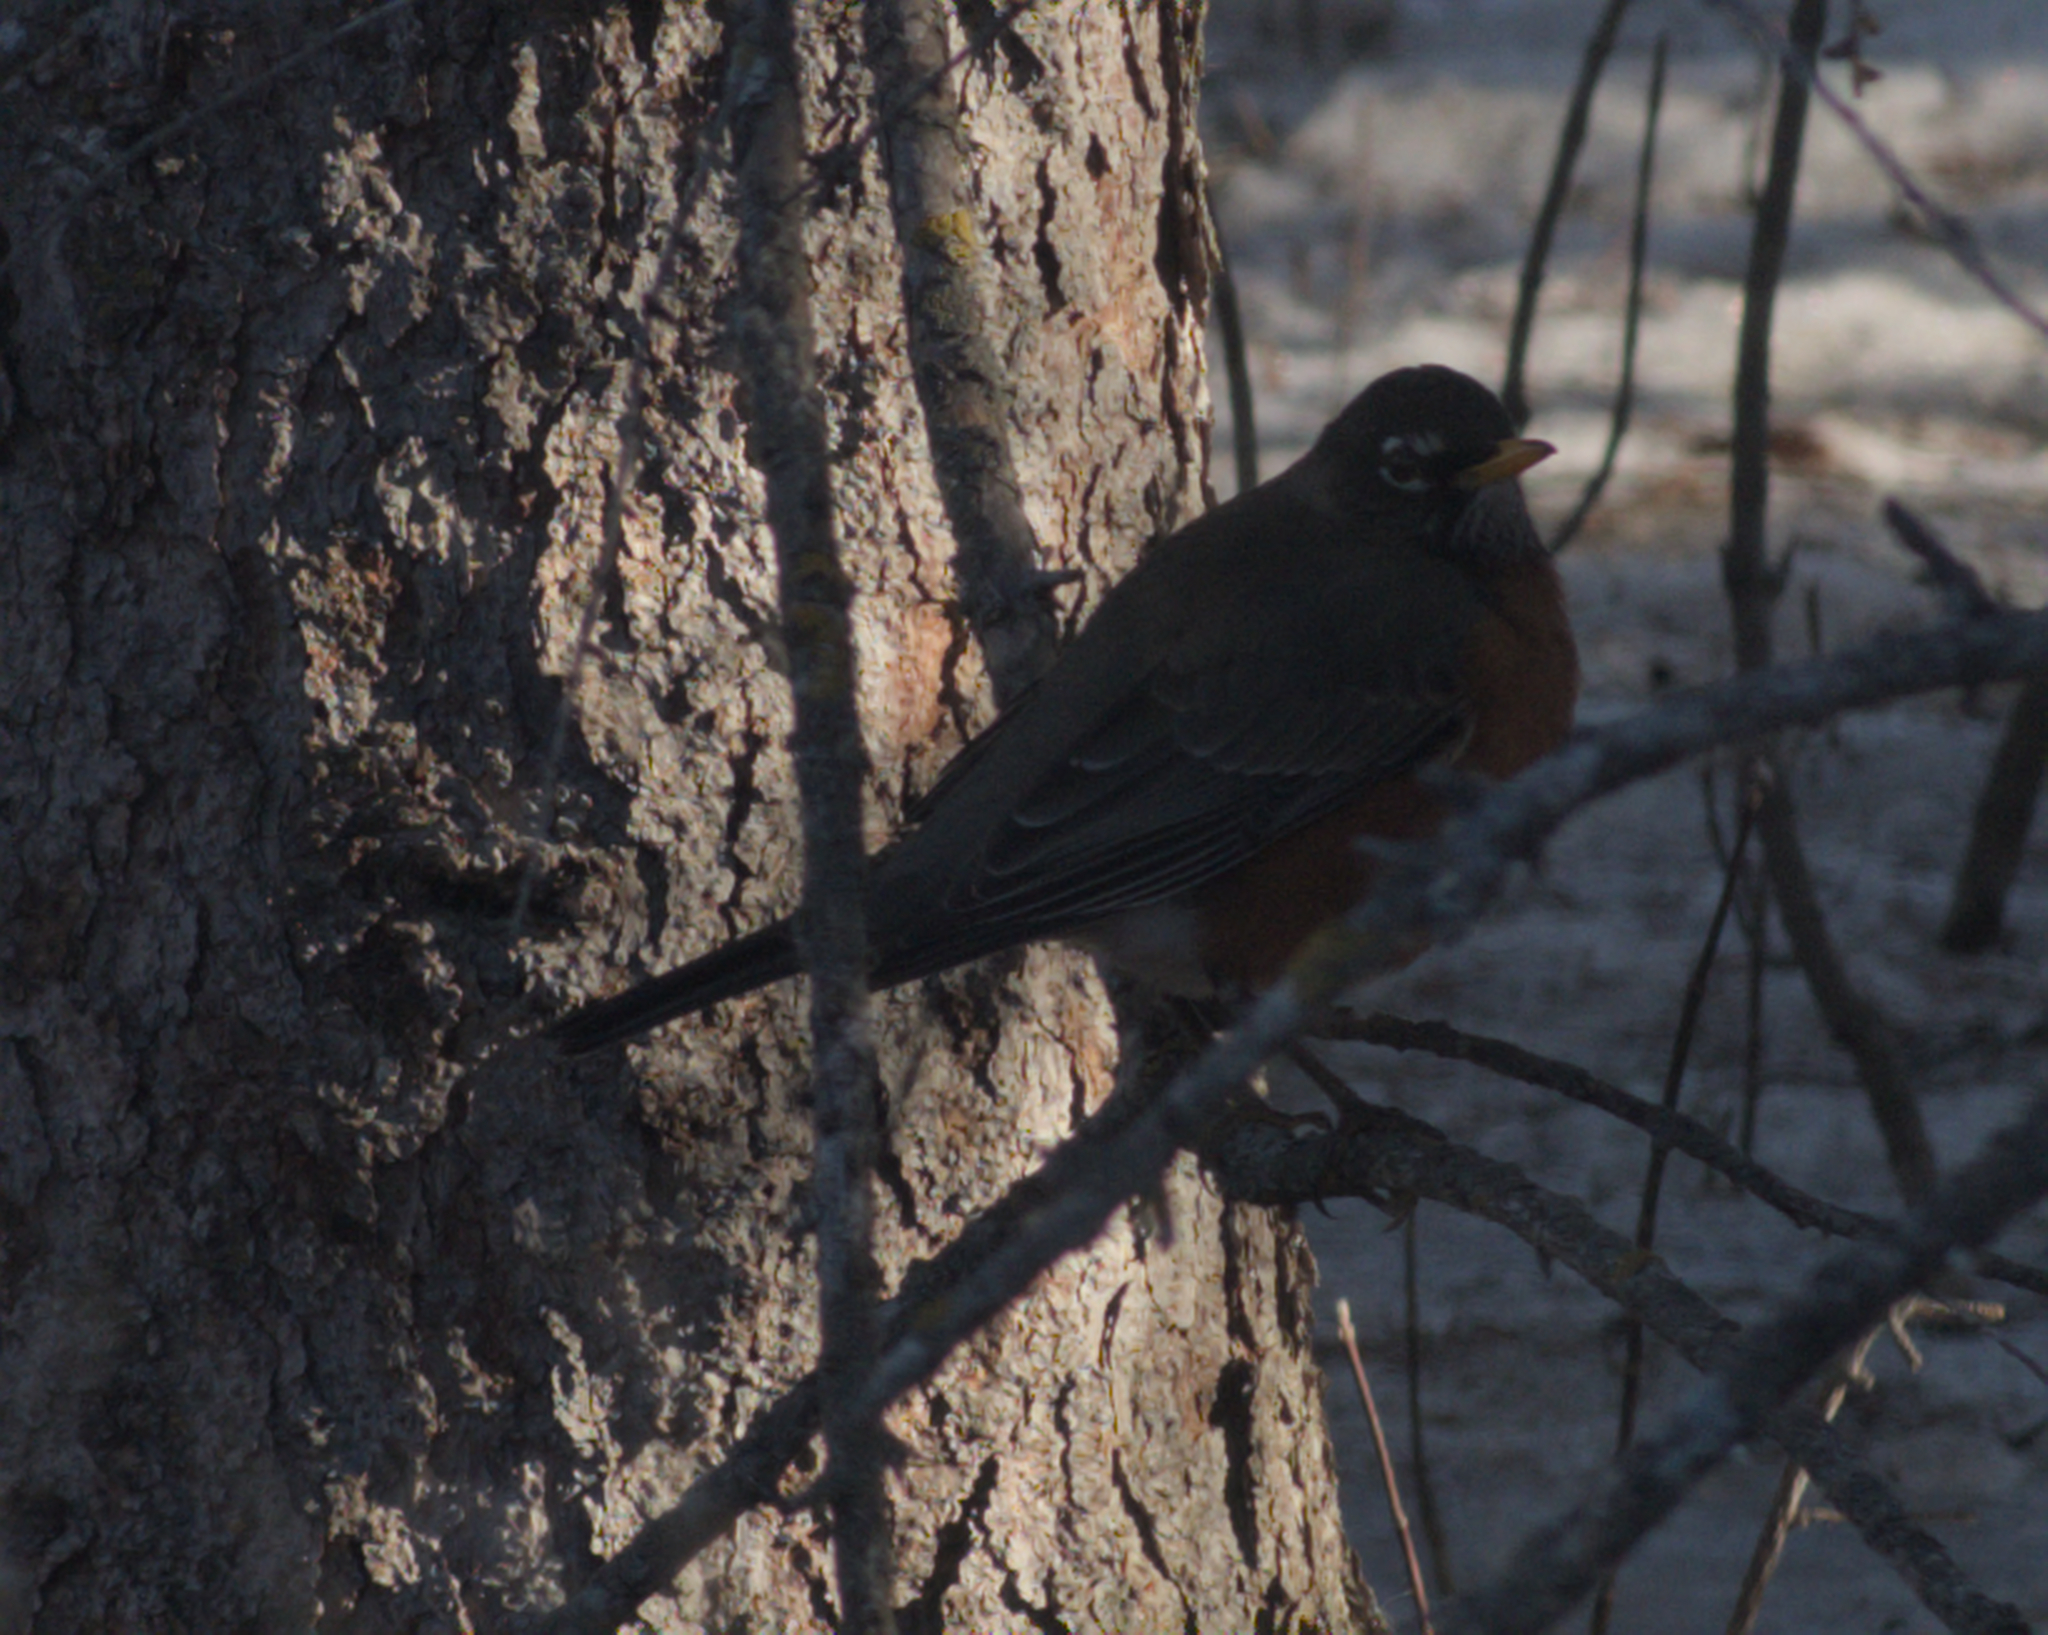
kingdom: Animalia
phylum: Chordata
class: Aves
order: Passeriformes
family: Turdidae
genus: Turdus
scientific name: Turdus migratorius
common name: American robin
